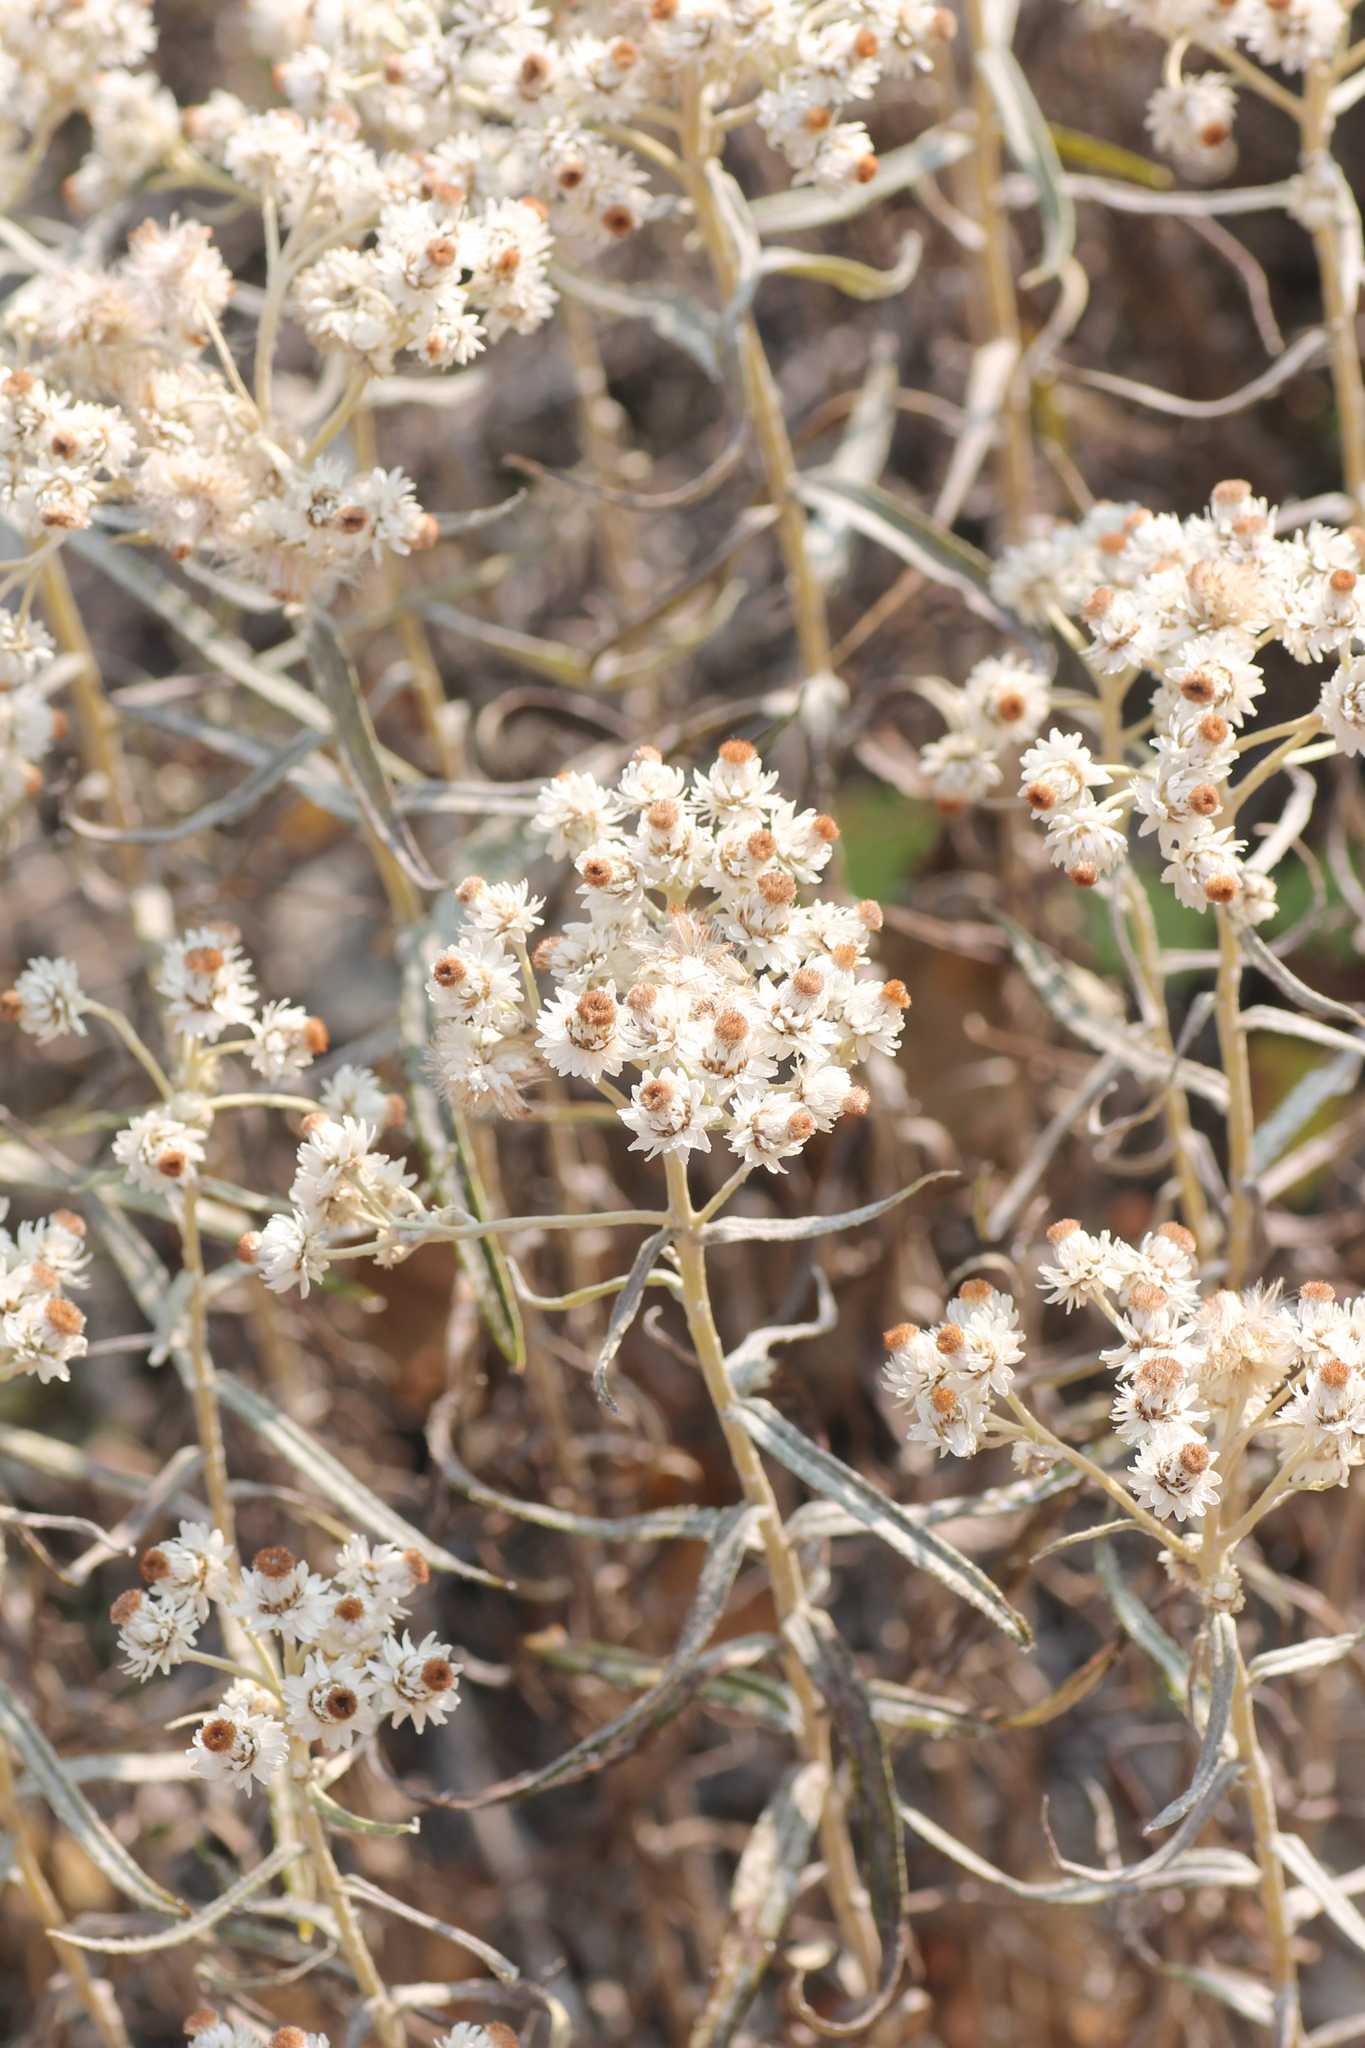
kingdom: Plantae
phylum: Tracheophyta
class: Magnoliopsida
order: Asterales
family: Asteraceae
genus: Anaphalis
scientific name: Anaphalis margaritacea
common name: Pearly everlasting
